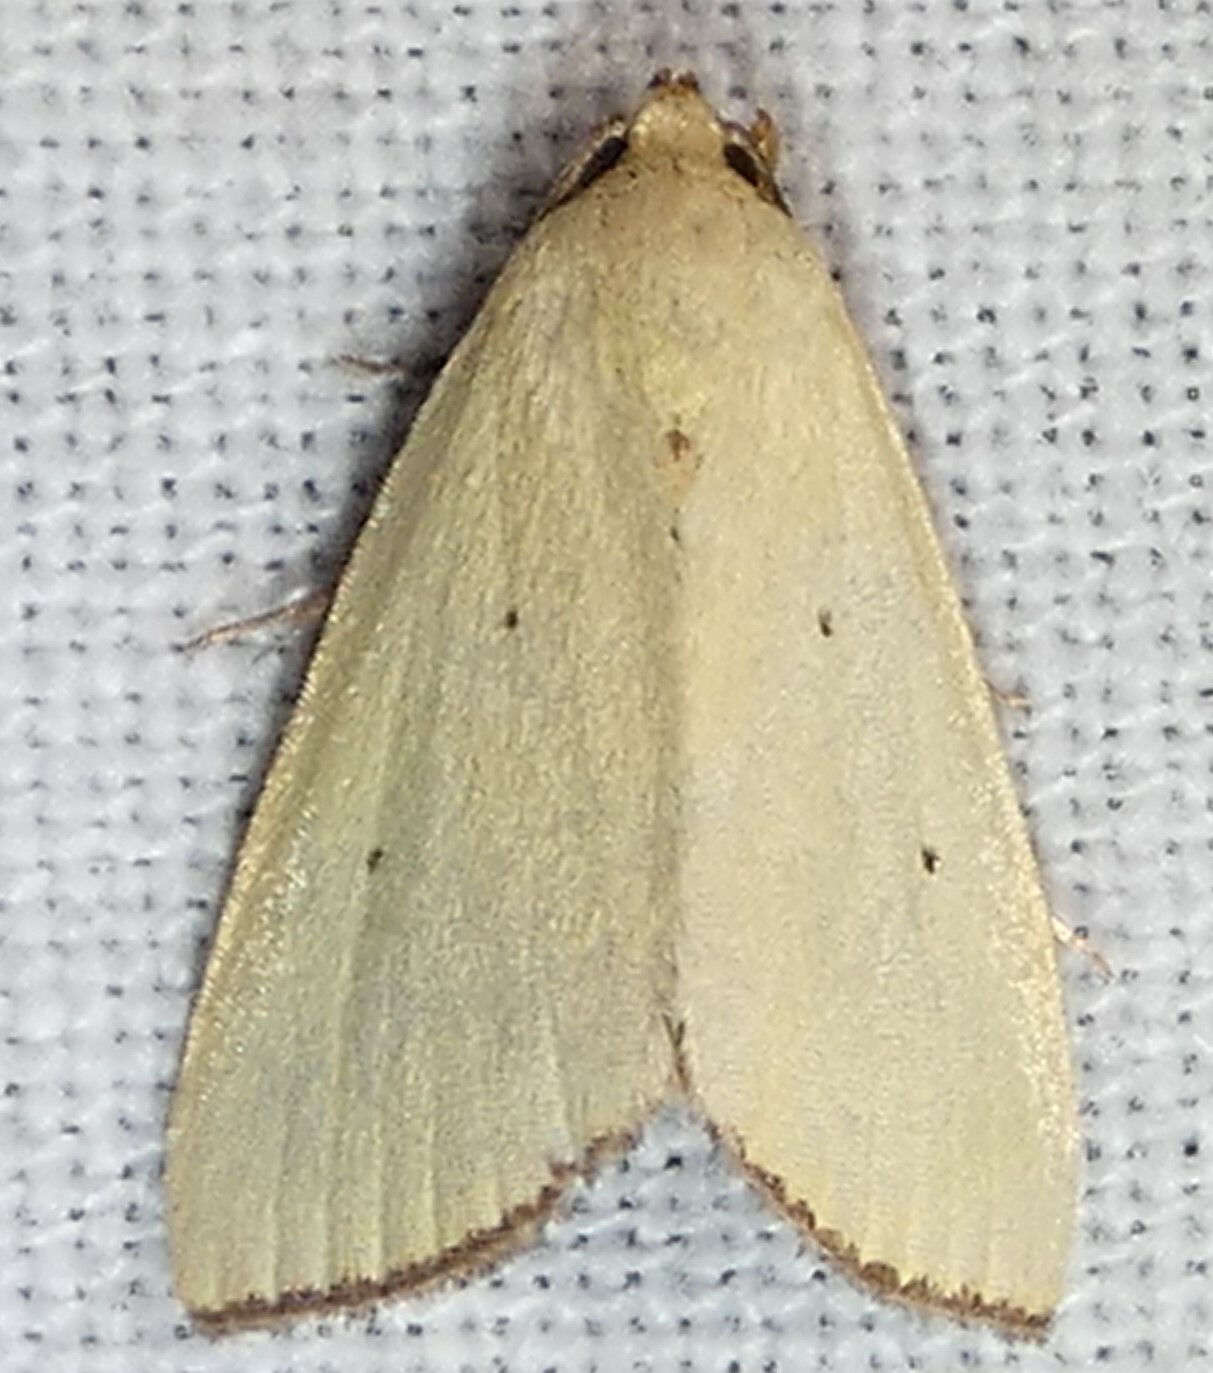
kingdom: Animalia
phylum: Arthropoda
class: Insecta
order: Lepidoptera
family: Noctuidae
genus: Marimatha
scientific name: Marimatha nigrofimbria
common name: Black-bordered lemon moth
